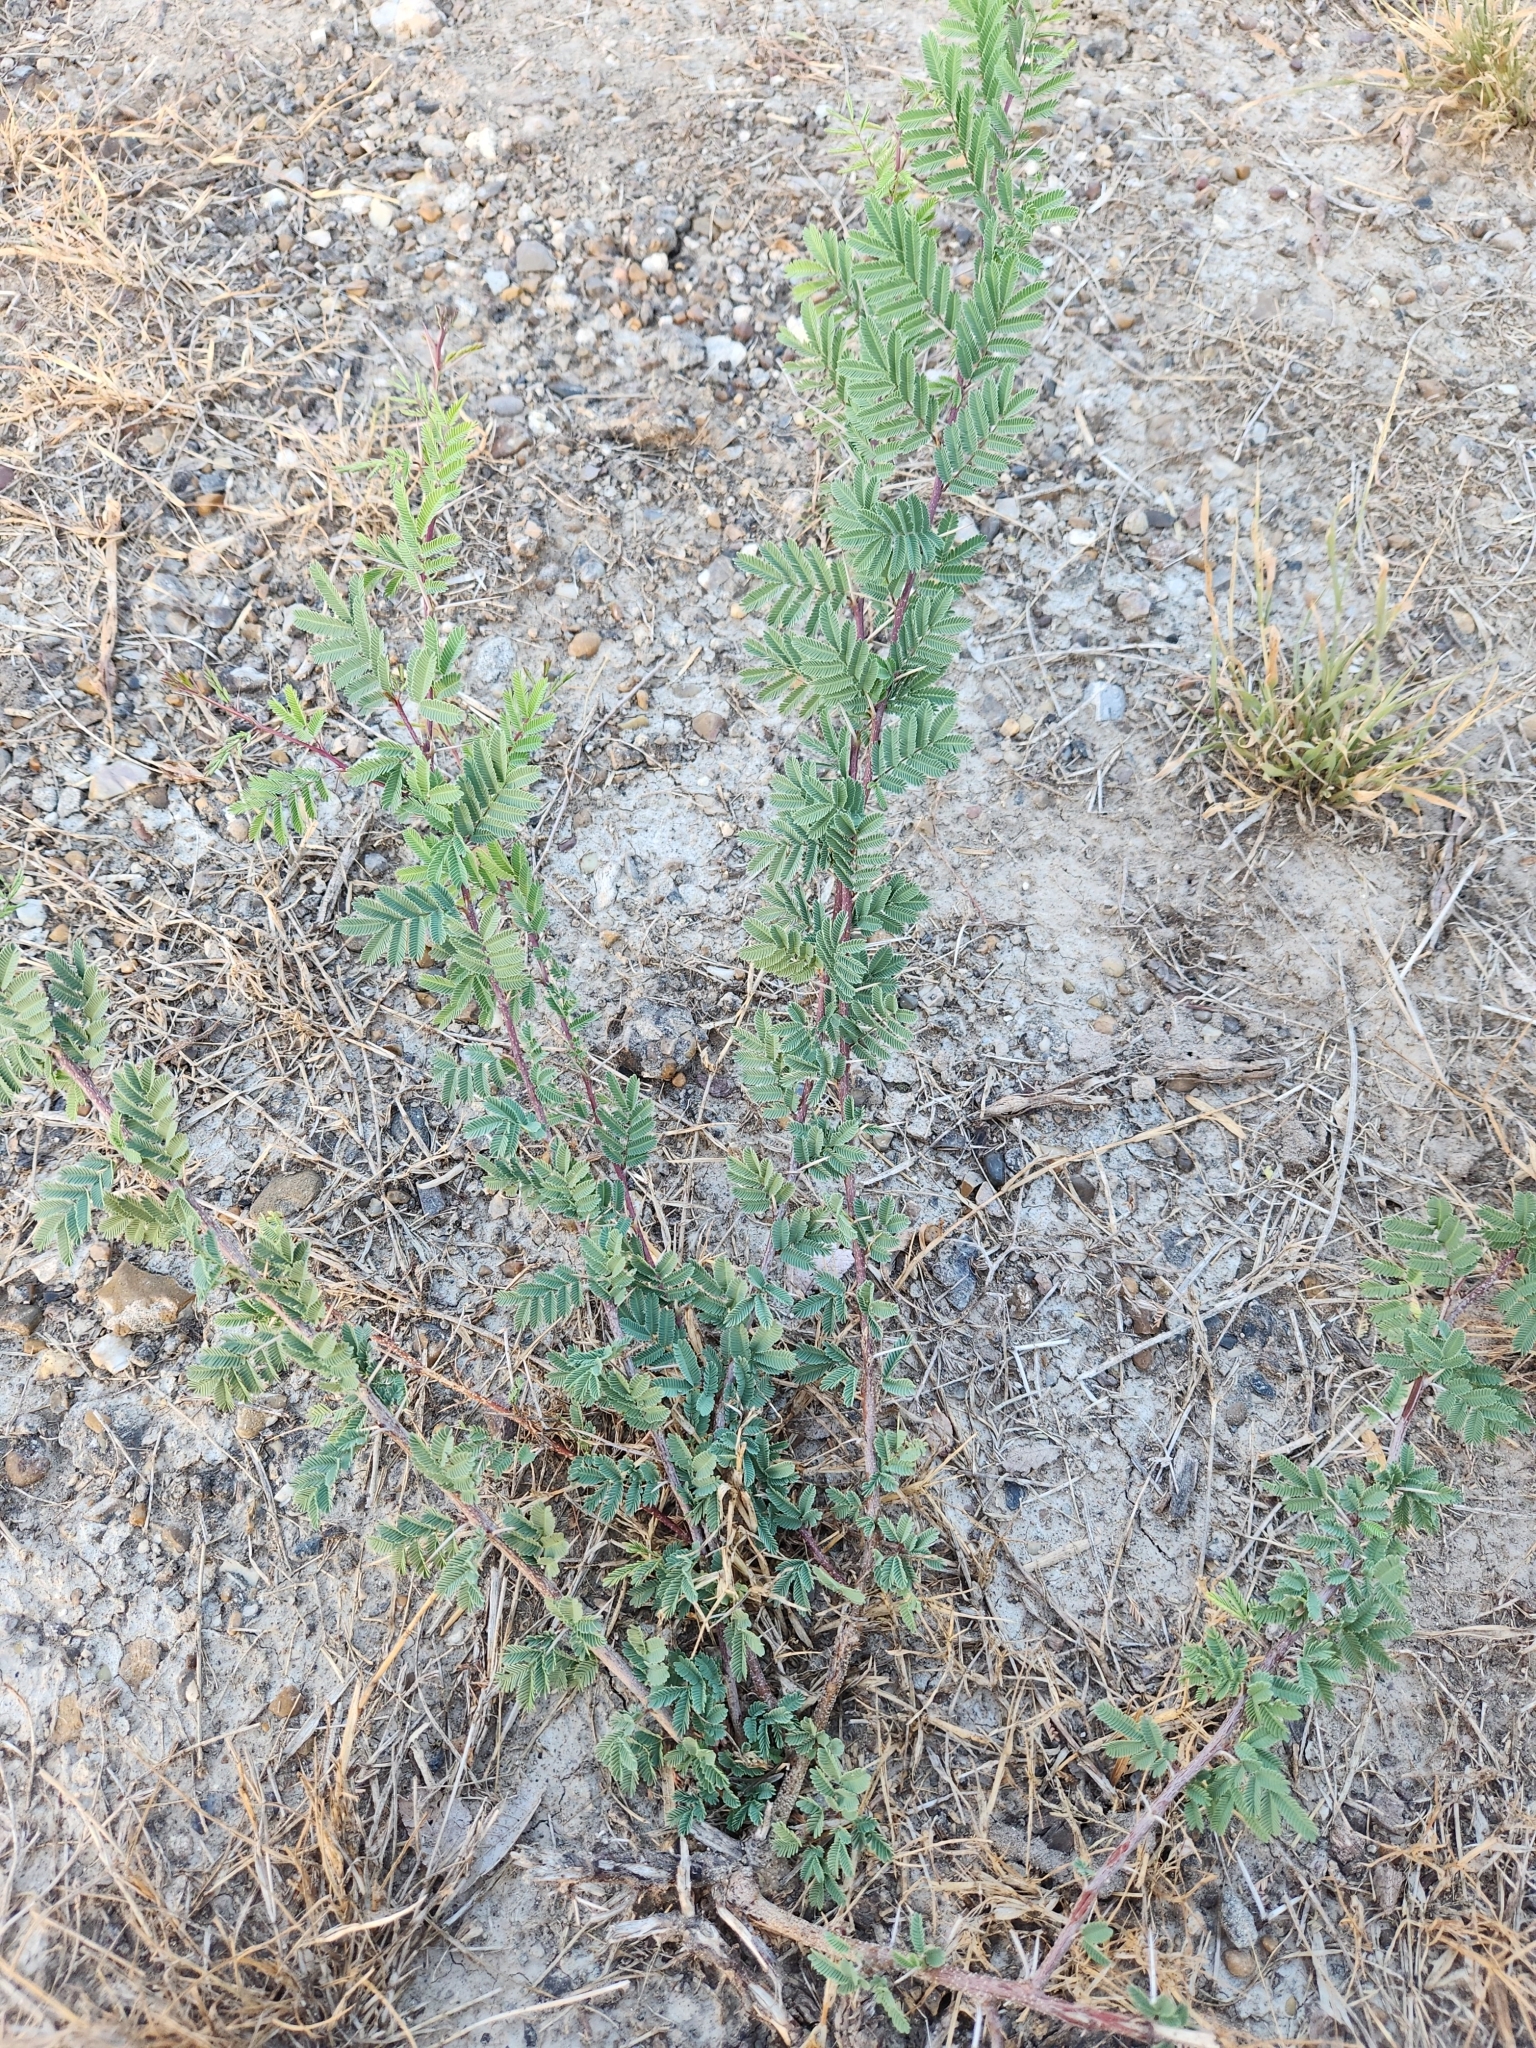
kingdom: Plantae
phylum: Tracheophyta
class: Magnoliopsida
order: Fabales
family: Fabaceae
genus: Vachellia
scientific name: Vachellia farnesiana
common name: Sweet acacia
